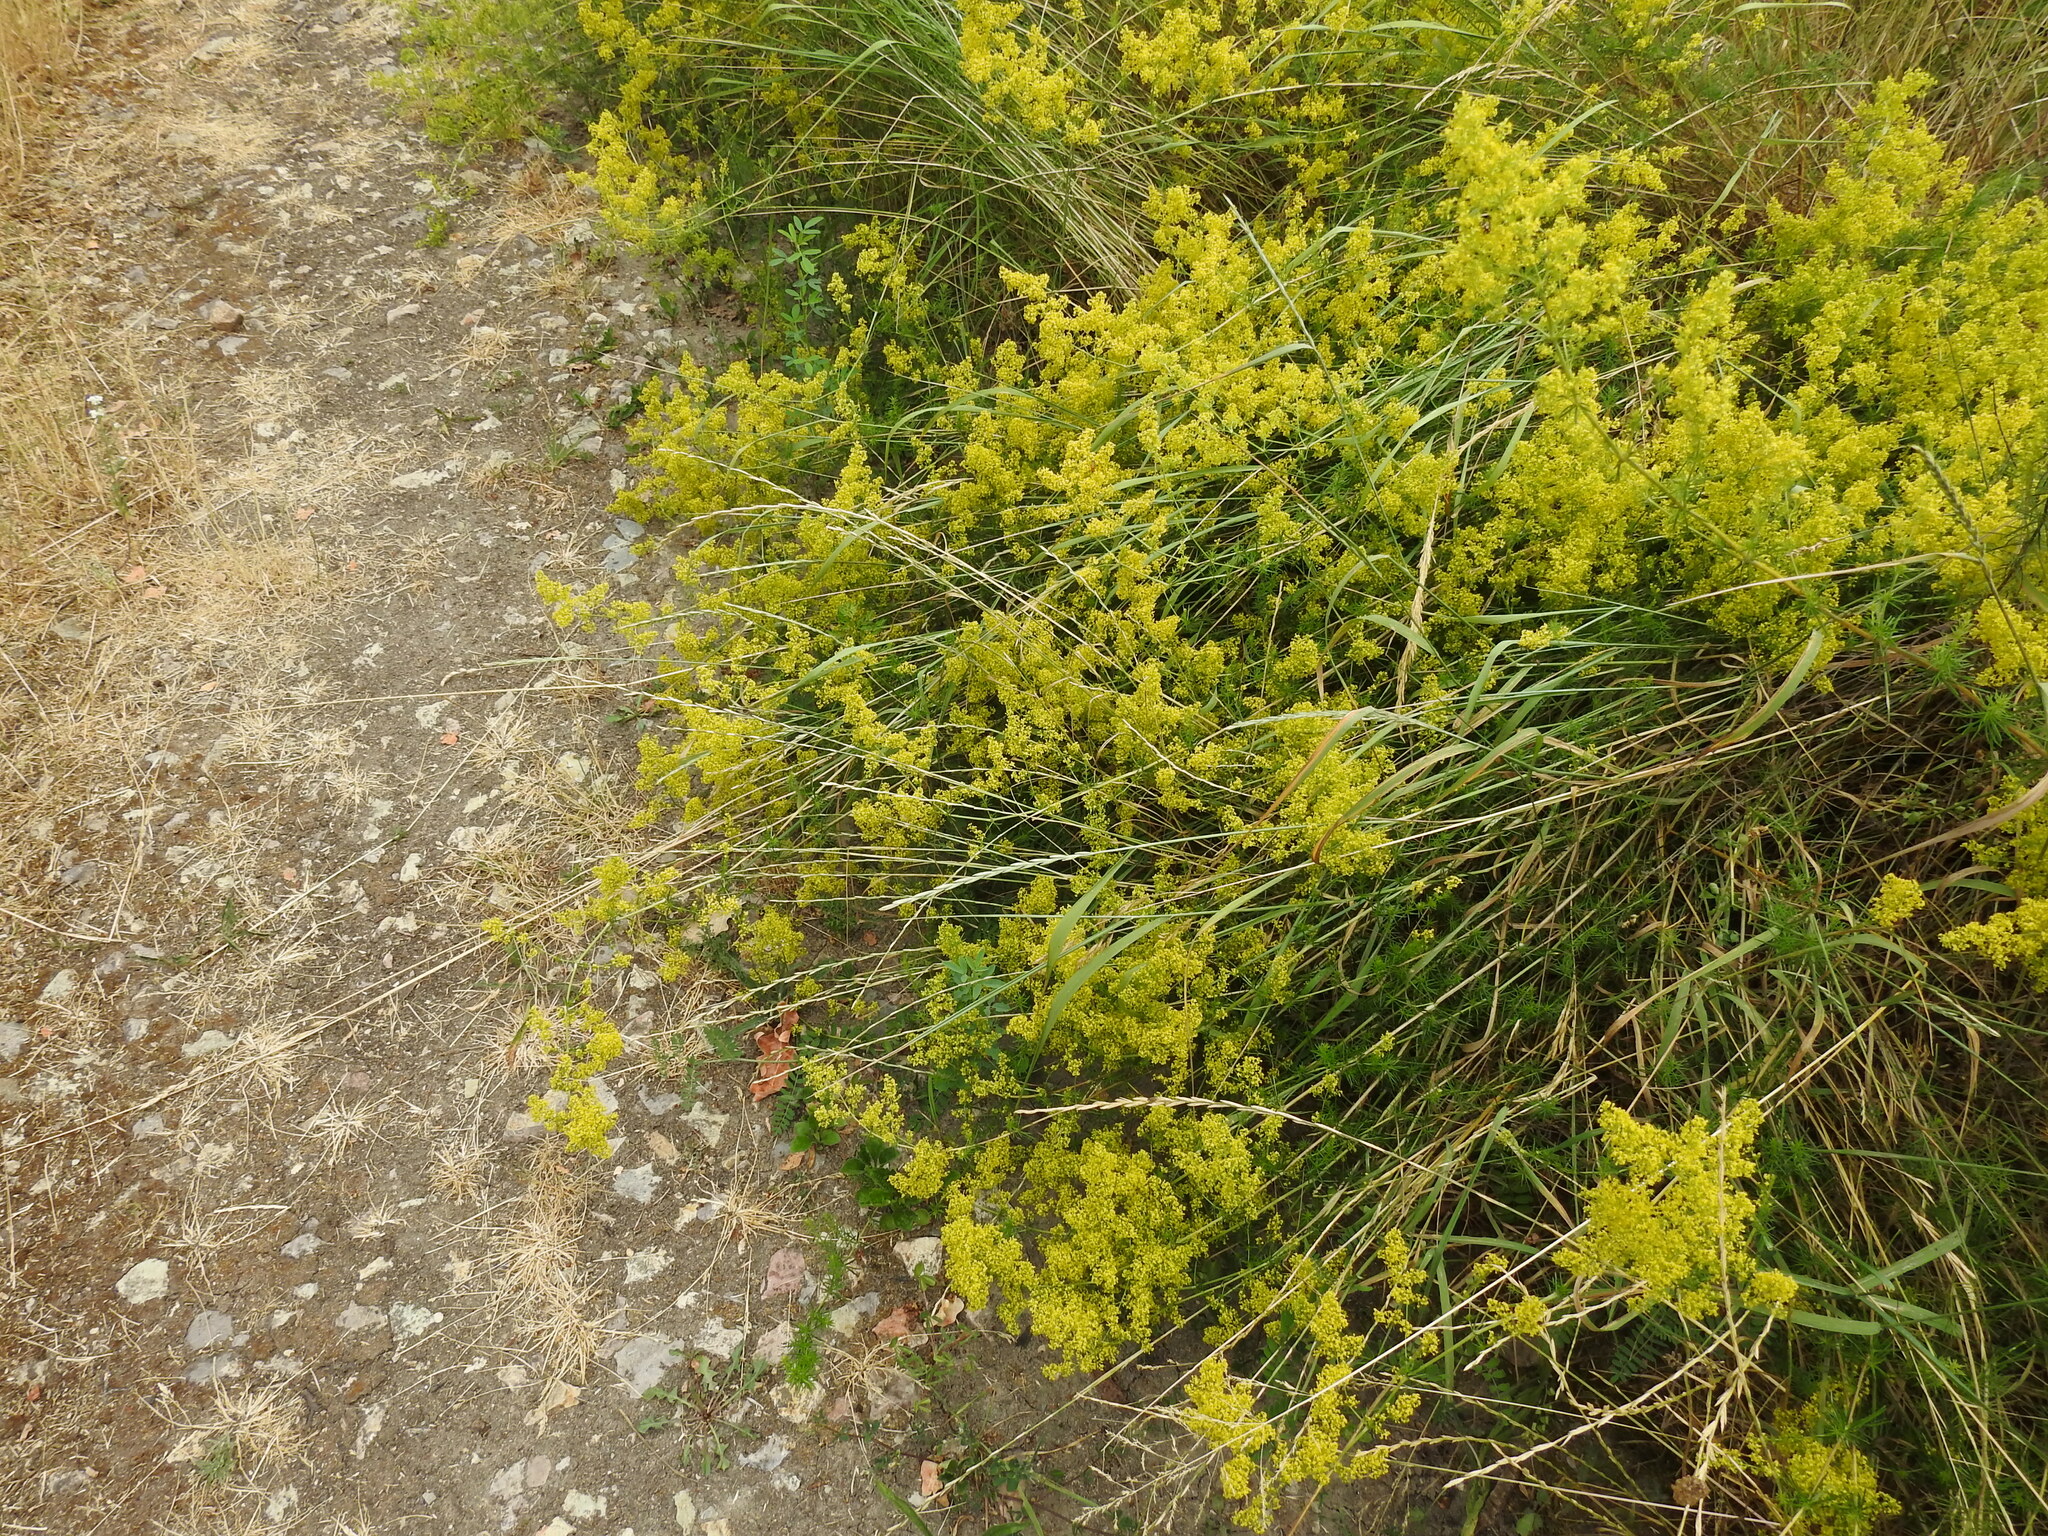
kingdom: Plantae
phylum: Tracheophyta
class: Magnoliopsida
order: Gentianales
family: Rubiaceae
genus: Galium
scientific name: Galium verum
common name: Lady's bedstraw
